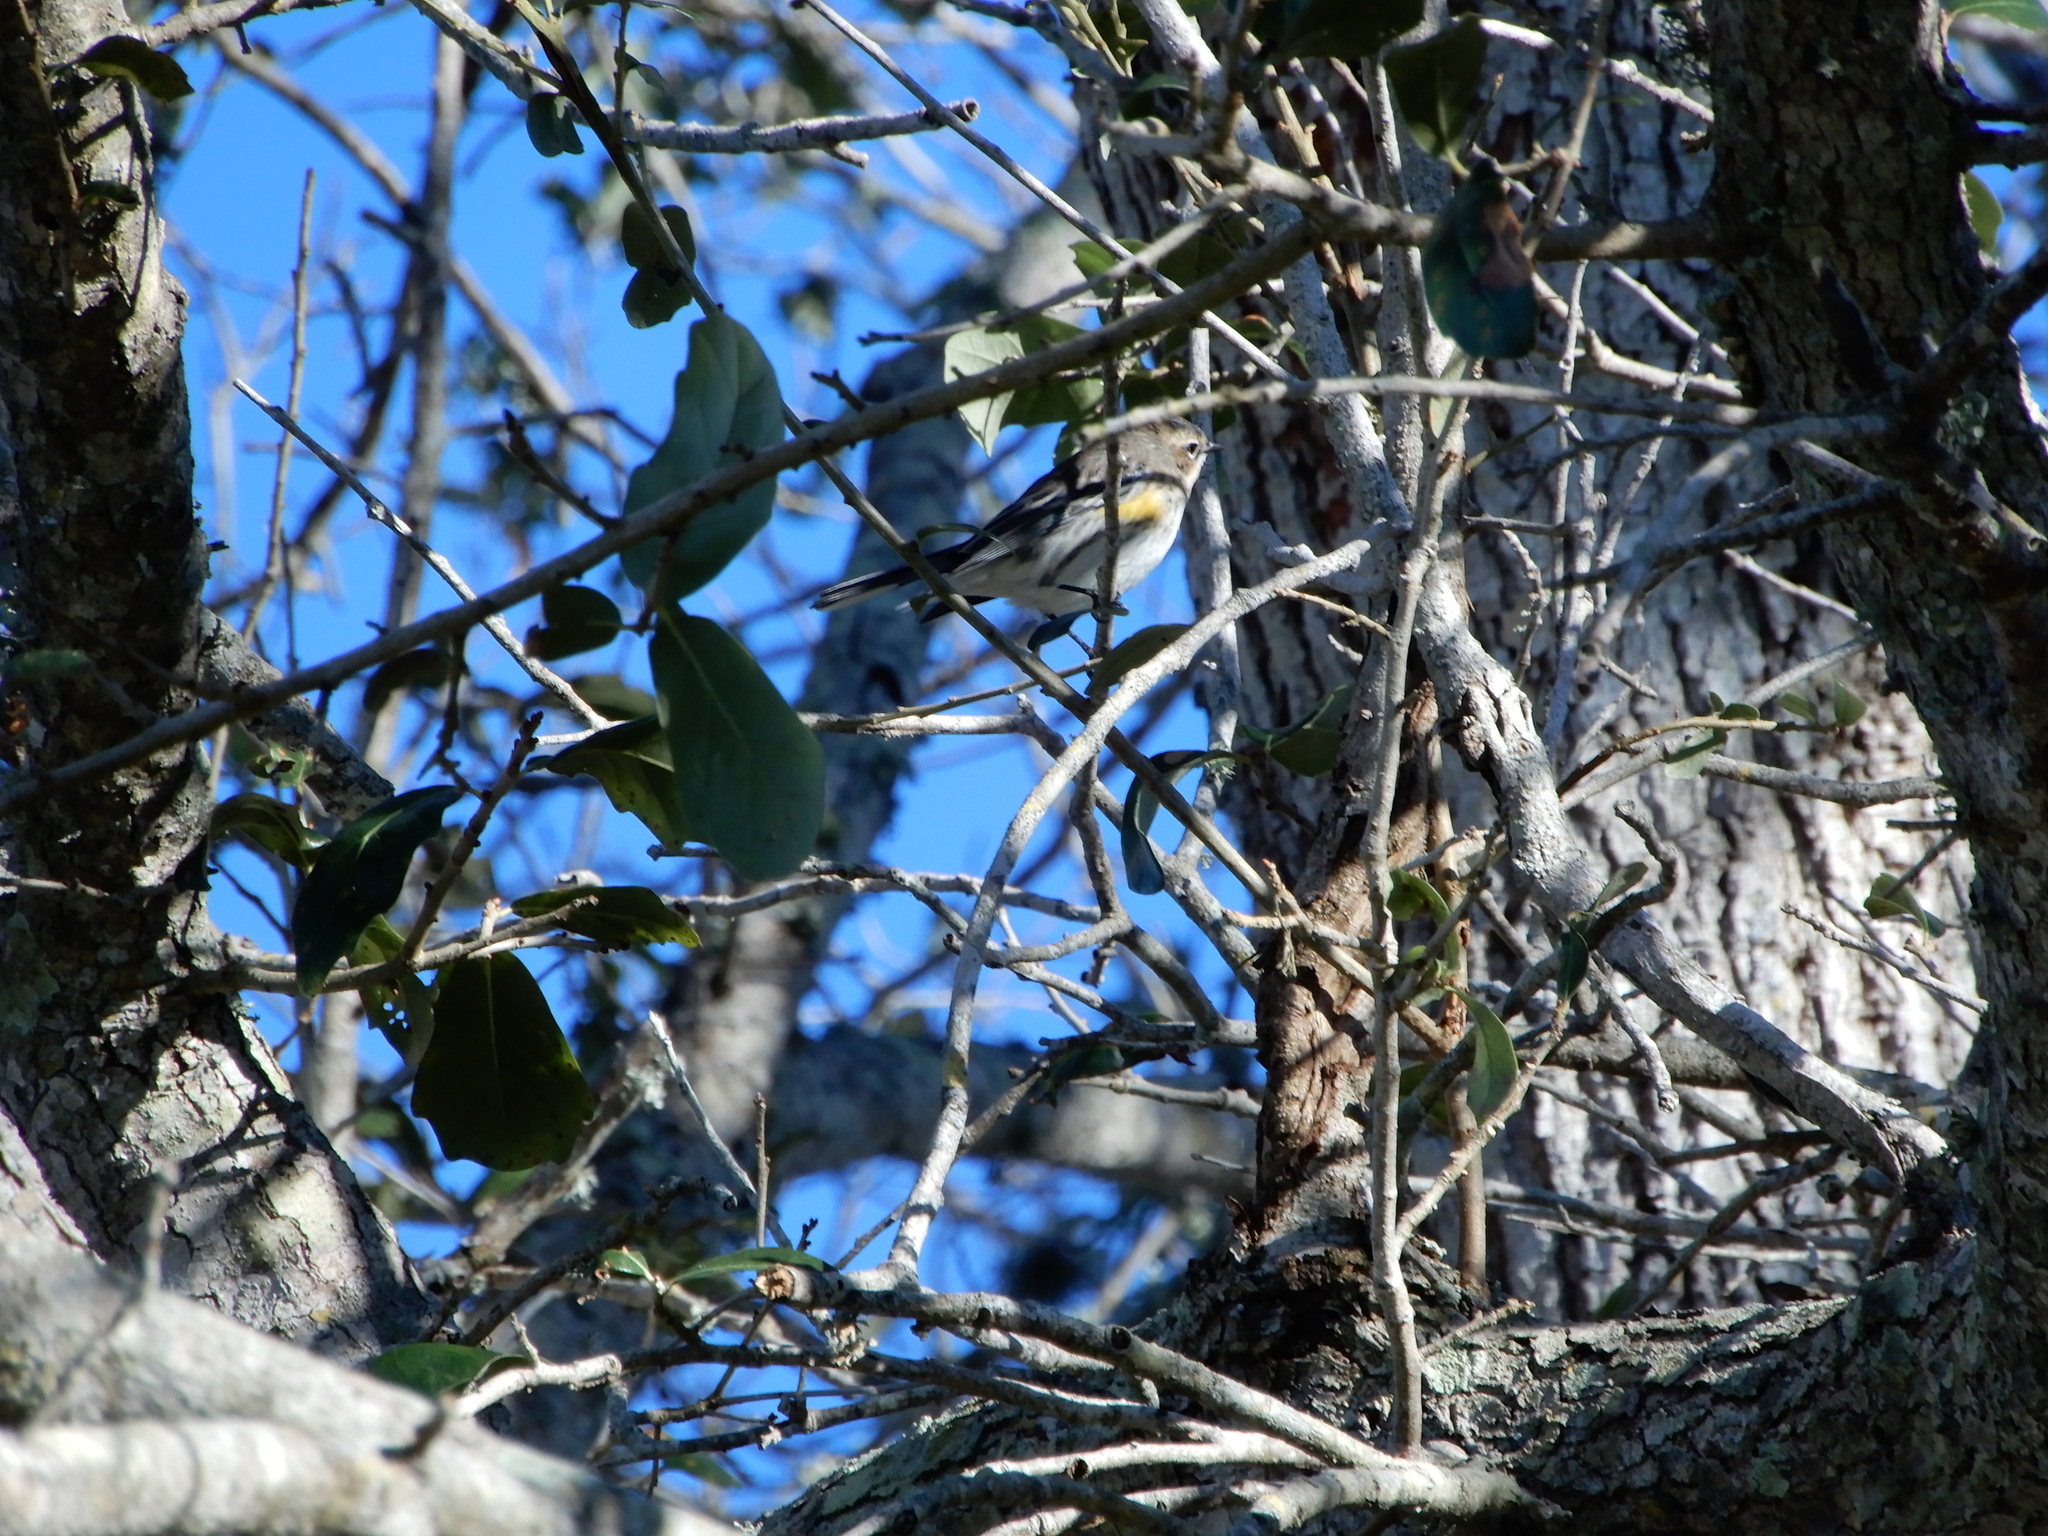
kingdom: Animalia
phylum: Chordata
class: Aves
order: Passeriformes
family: Parulidae
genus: Setophaga
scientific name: Setophaga coronata
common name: Myrtle warbler
